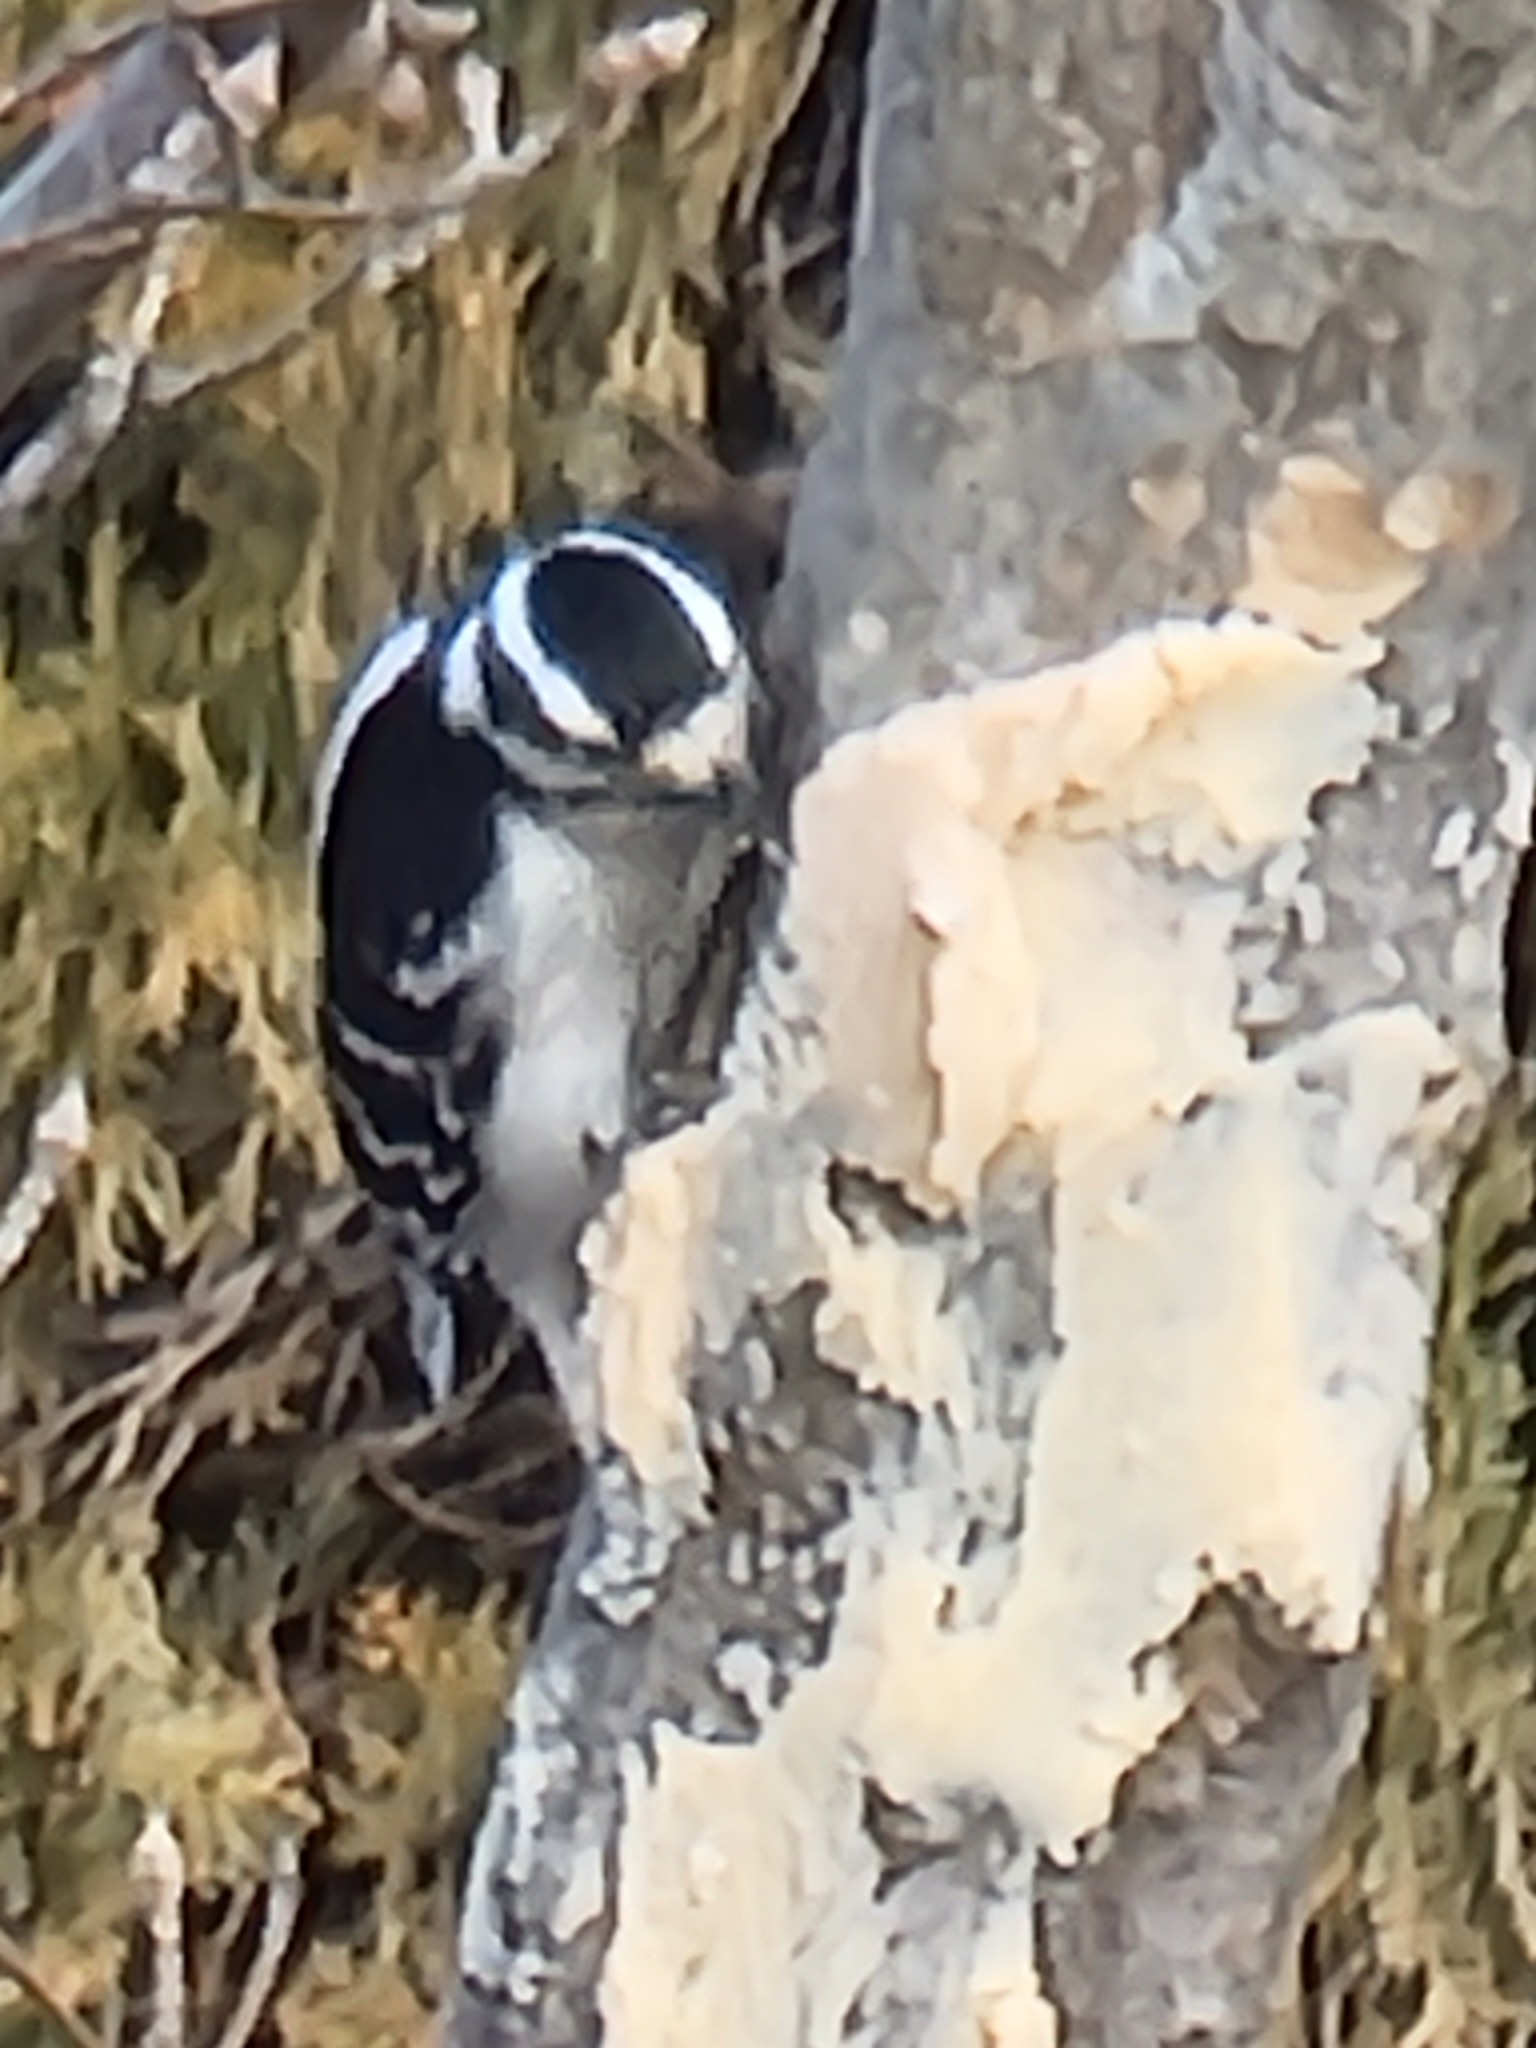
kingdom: Animalia
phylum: Chordata
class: Aves
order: Piciformes
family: Picidae
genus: Dryobates
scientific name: Dryobates pubescens
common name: Downy woodpecker
